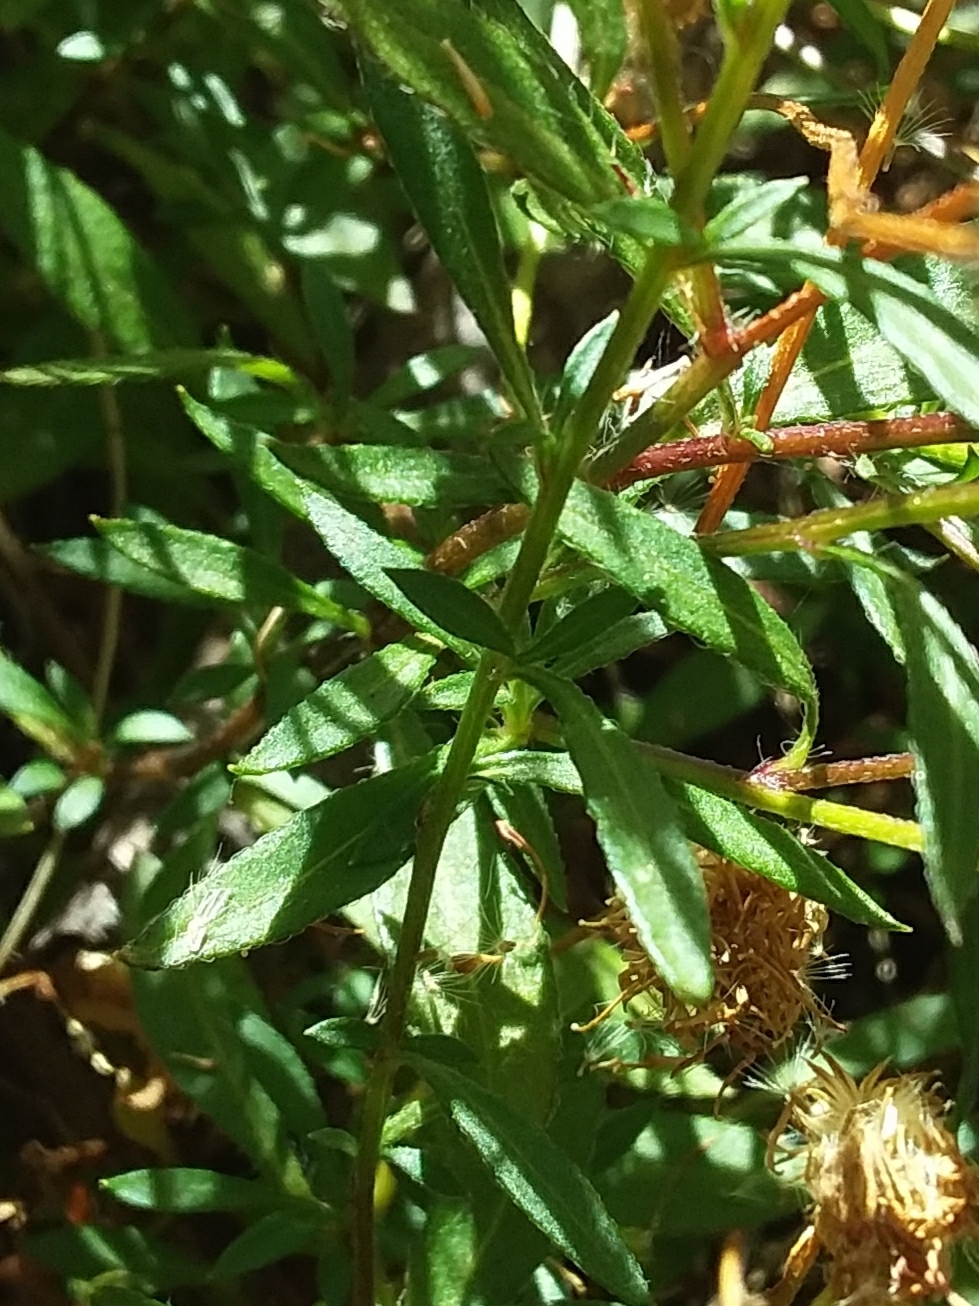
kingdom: Plantae
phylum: Tracheophyta
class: Magnoliopsida
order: Asterales
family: Asteraceae
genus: Erigeron
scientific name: Erigeron karvinskianus
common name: Mexican fleabane
